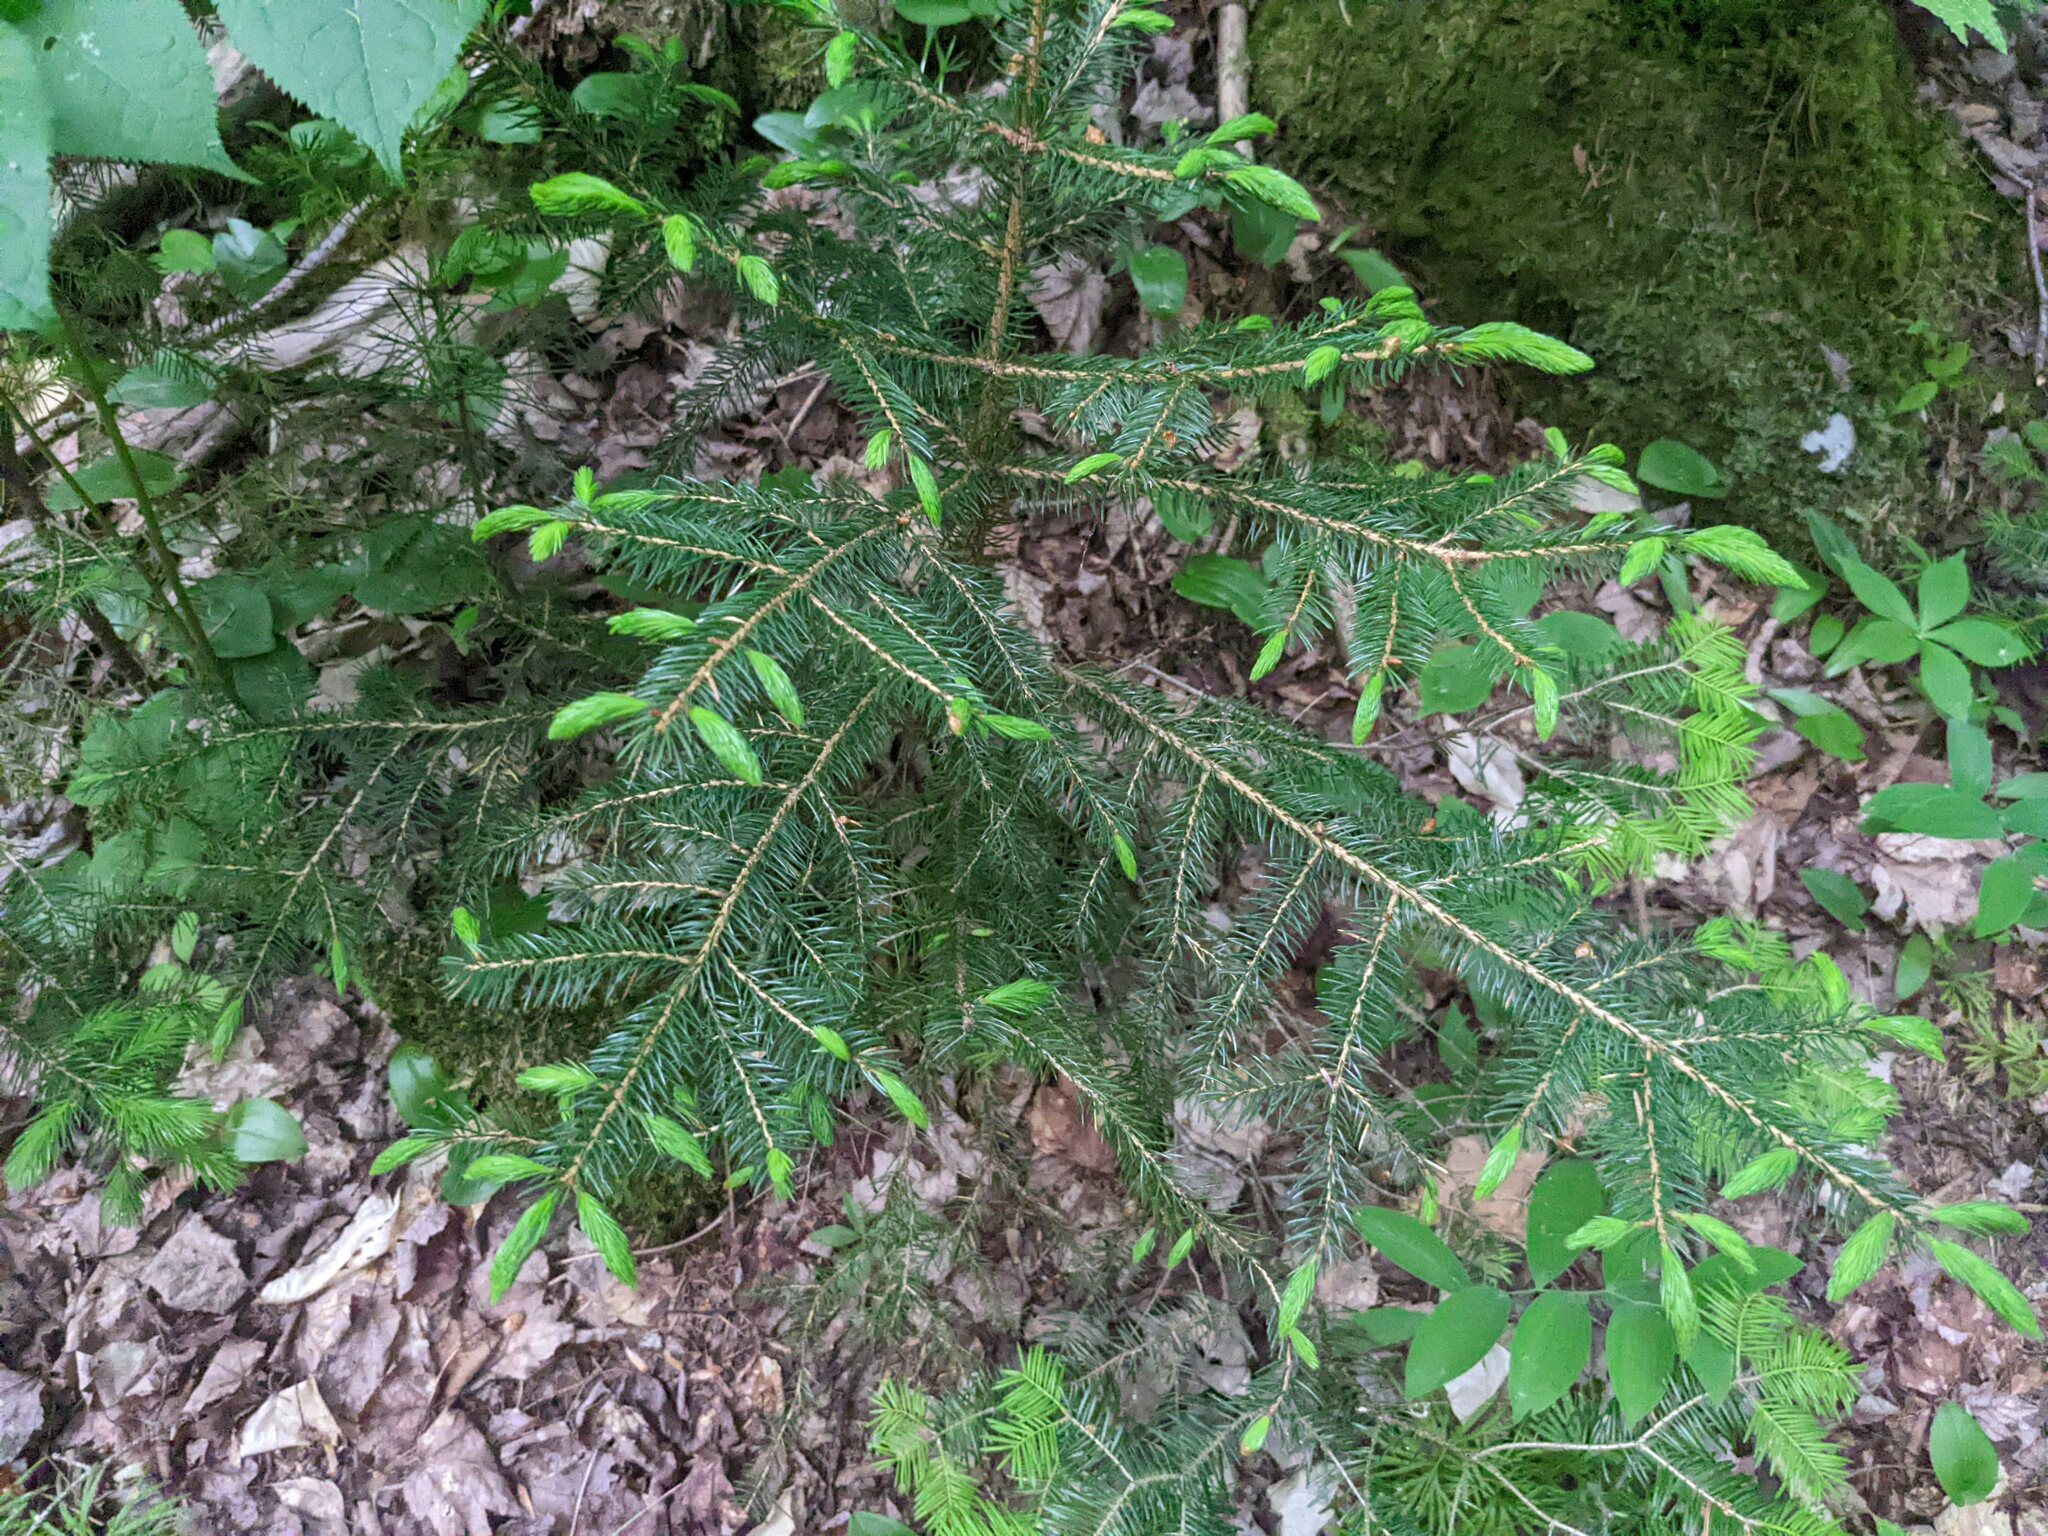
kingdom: Plantae
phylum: Tracheophyta
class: Pinopsida
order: Pinales
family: Pinaceae
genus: Picea
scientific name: Picea rubens
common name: Red spruce
